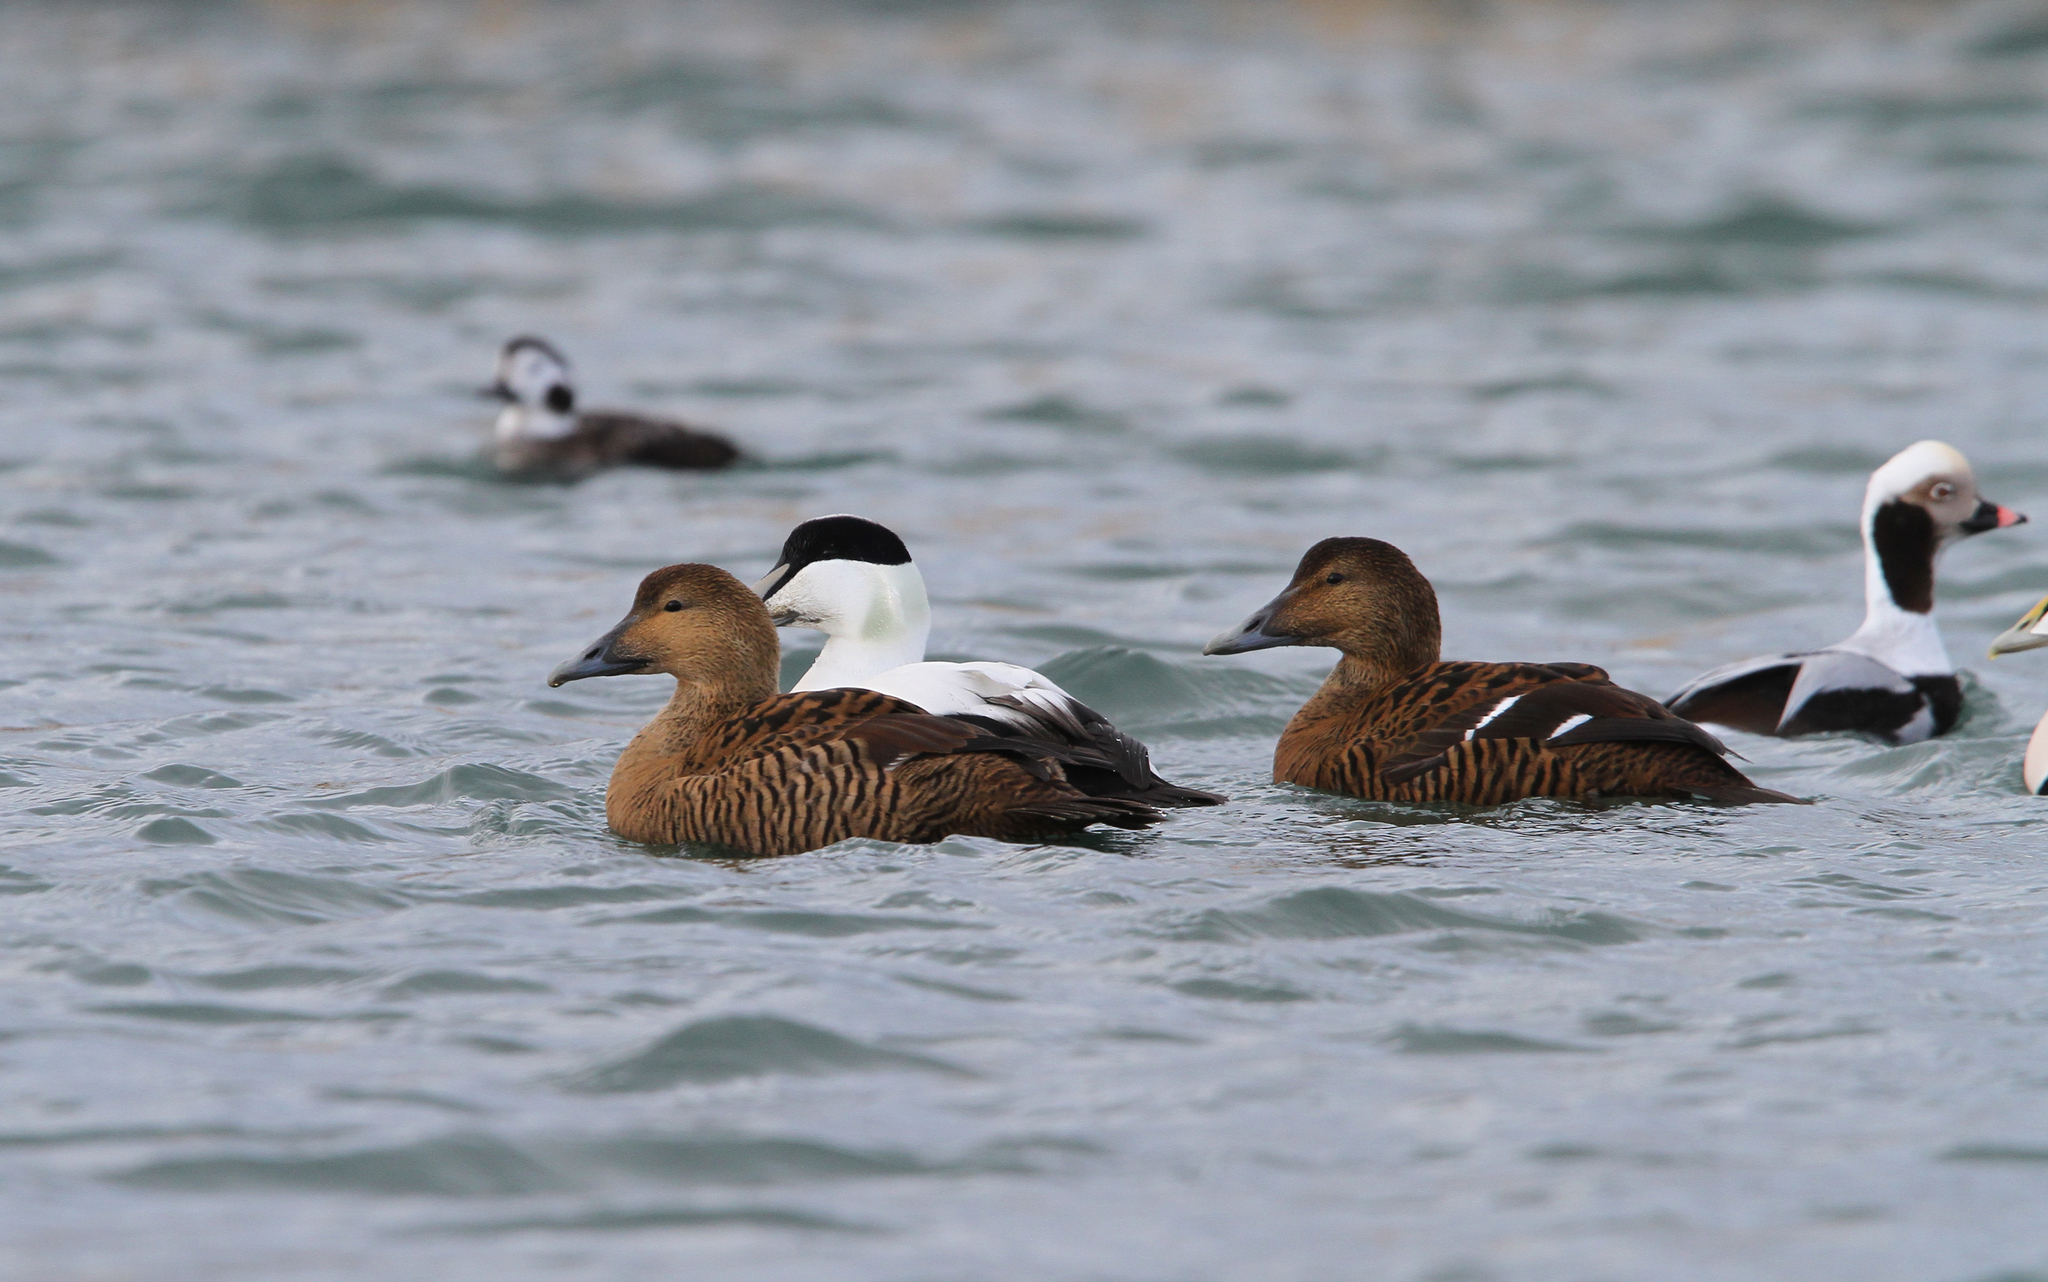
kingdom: Animalia
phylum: Chordata
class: Aves
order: Anseriformes
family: Anatidae
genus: Somateria
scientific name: Somateria mollissima
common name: Common eider
